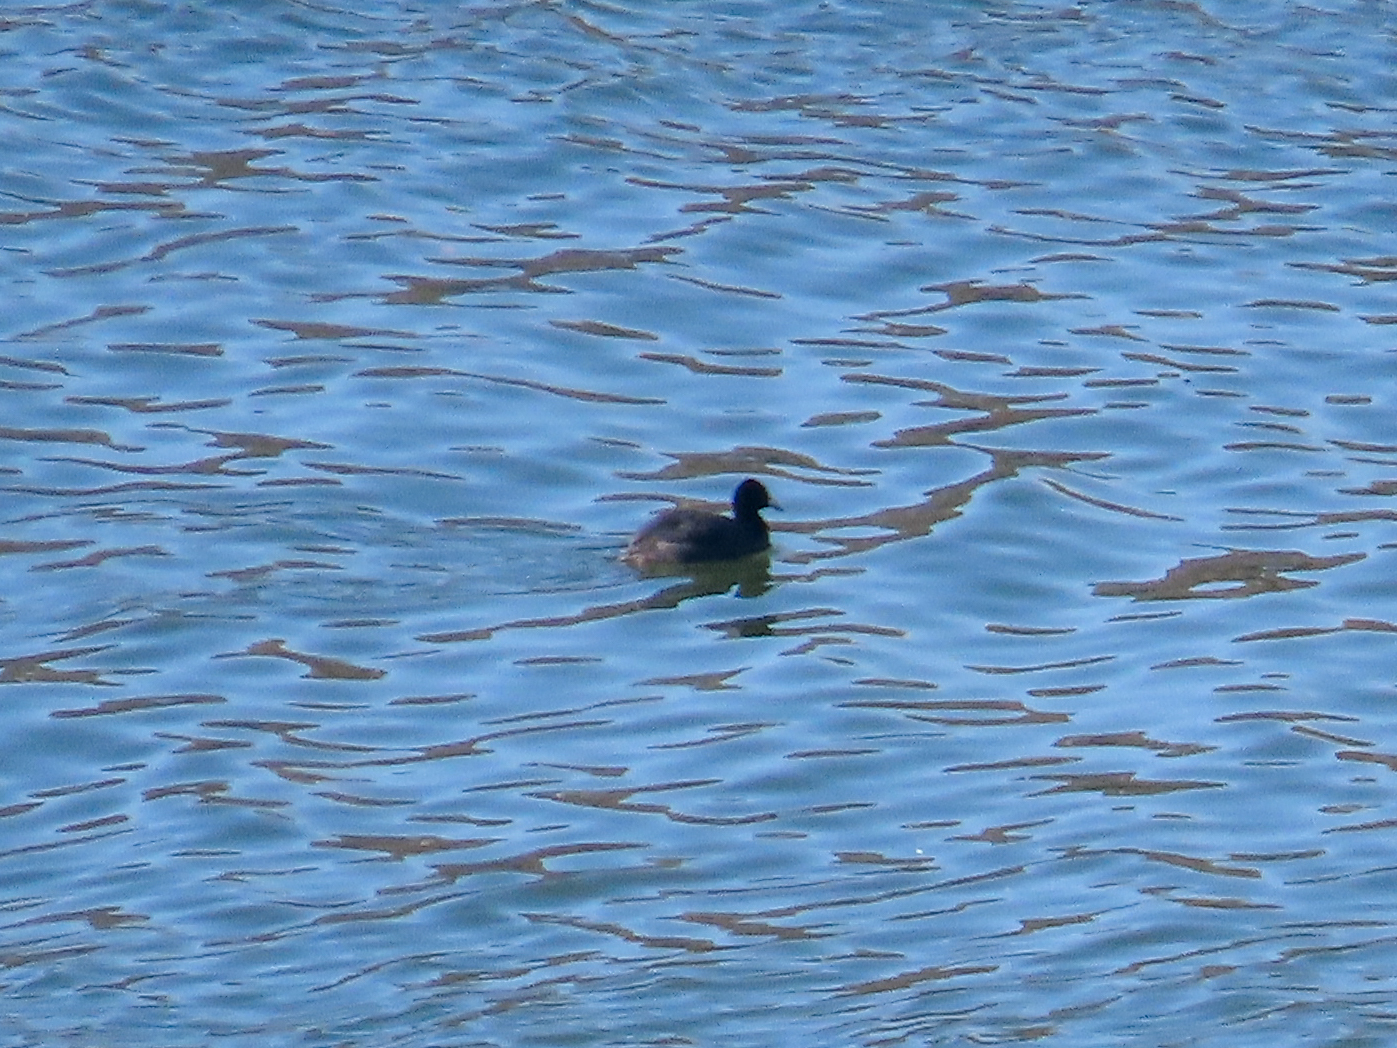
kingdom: Animalia
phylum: Chordata
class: Aves
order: Gruiformes
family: Rallidae
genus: Fulica
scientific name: Fulica atra
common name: Eurasian coot
